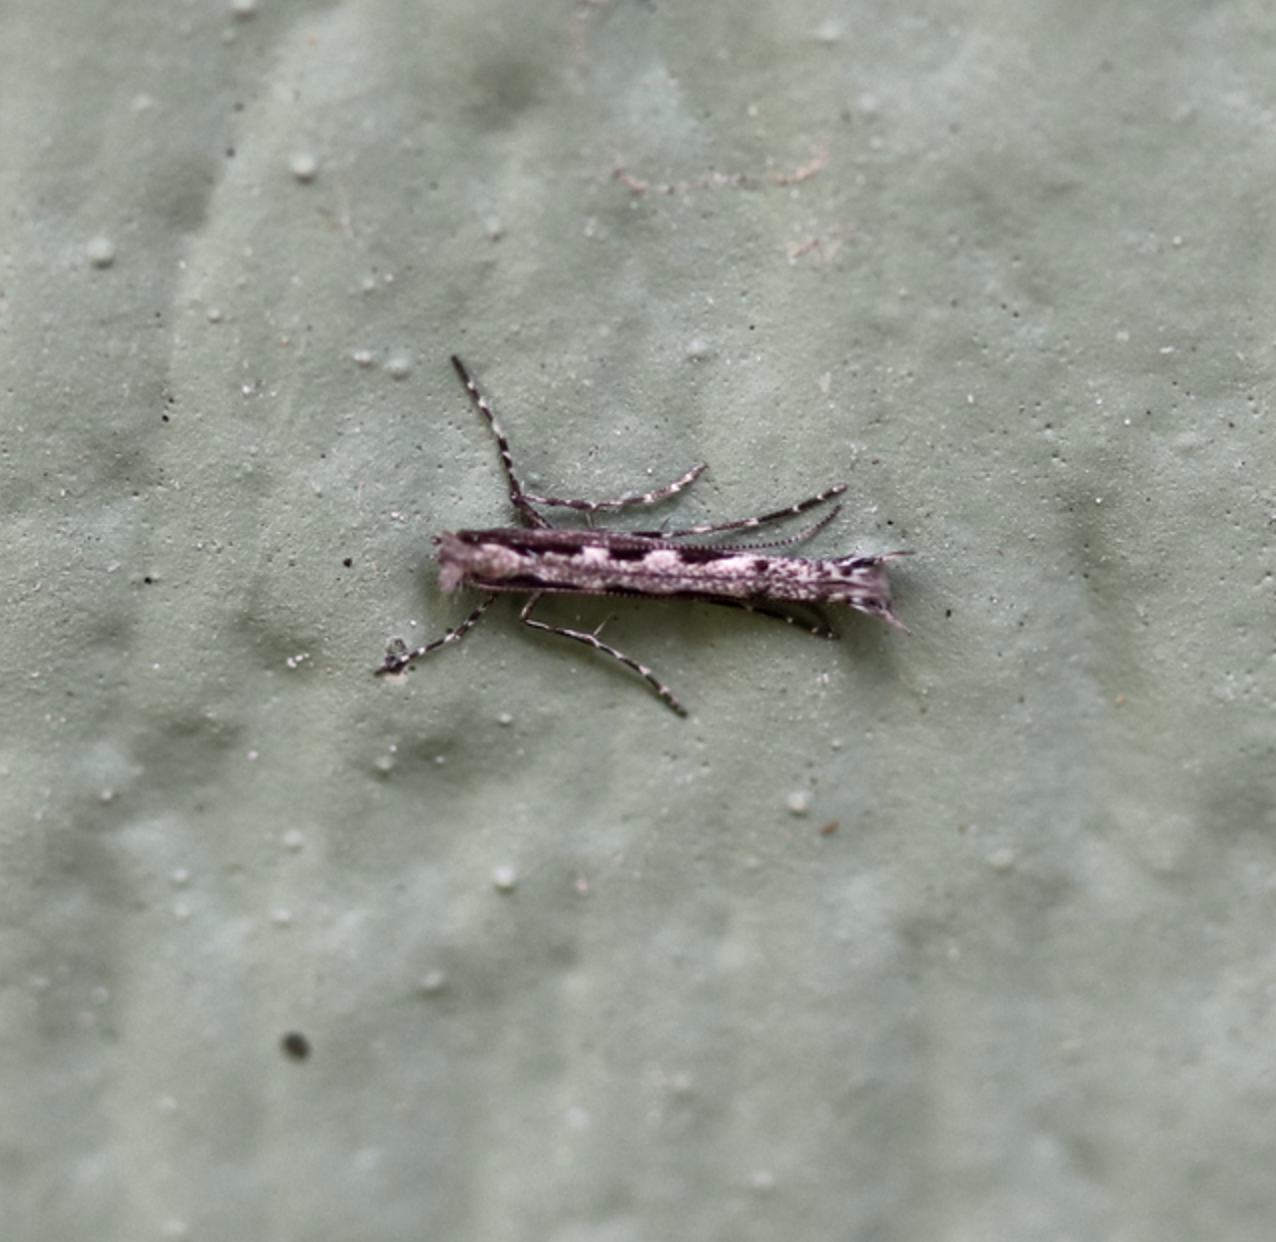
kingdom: Animalia
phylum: Arthropoda
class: Insecta
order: Lepidoptera
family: Gracillariidae
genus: Micrurapteryx
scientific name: Micrurapteryx salicifoliella
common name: Willow leaf blotch miner moth
